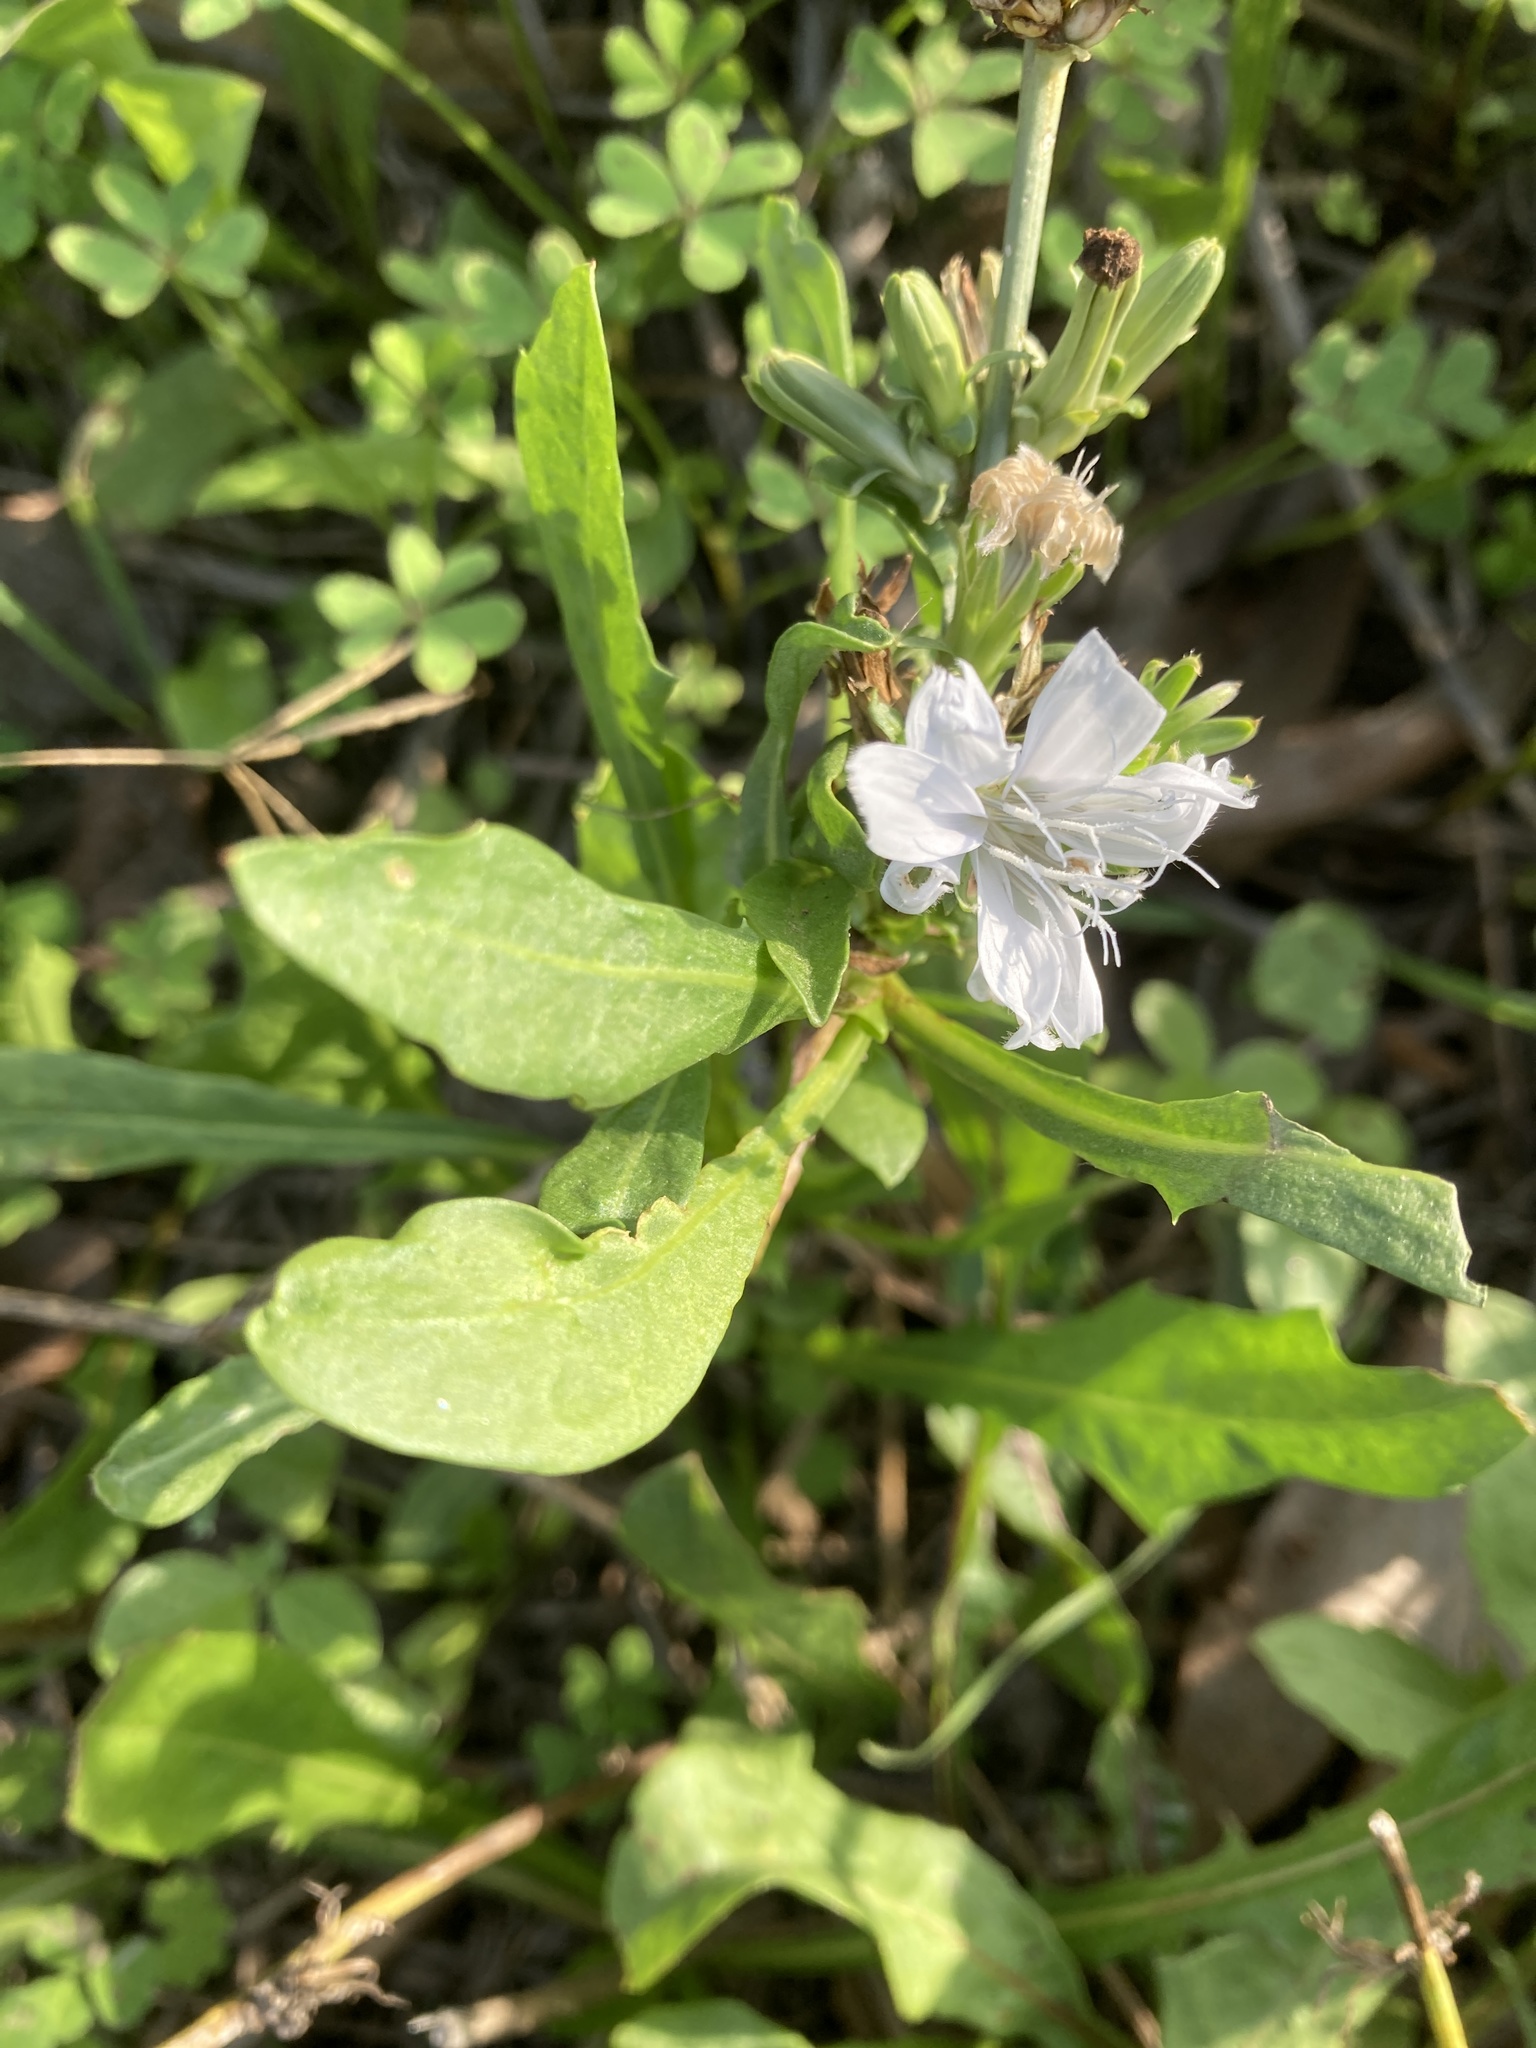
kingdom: Plantae
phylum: Tracheophyta
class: Magnoliopsida
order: Asterales
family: Asteraceae
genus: Cichorium
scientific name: Cichorium intybus
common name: Chicory
